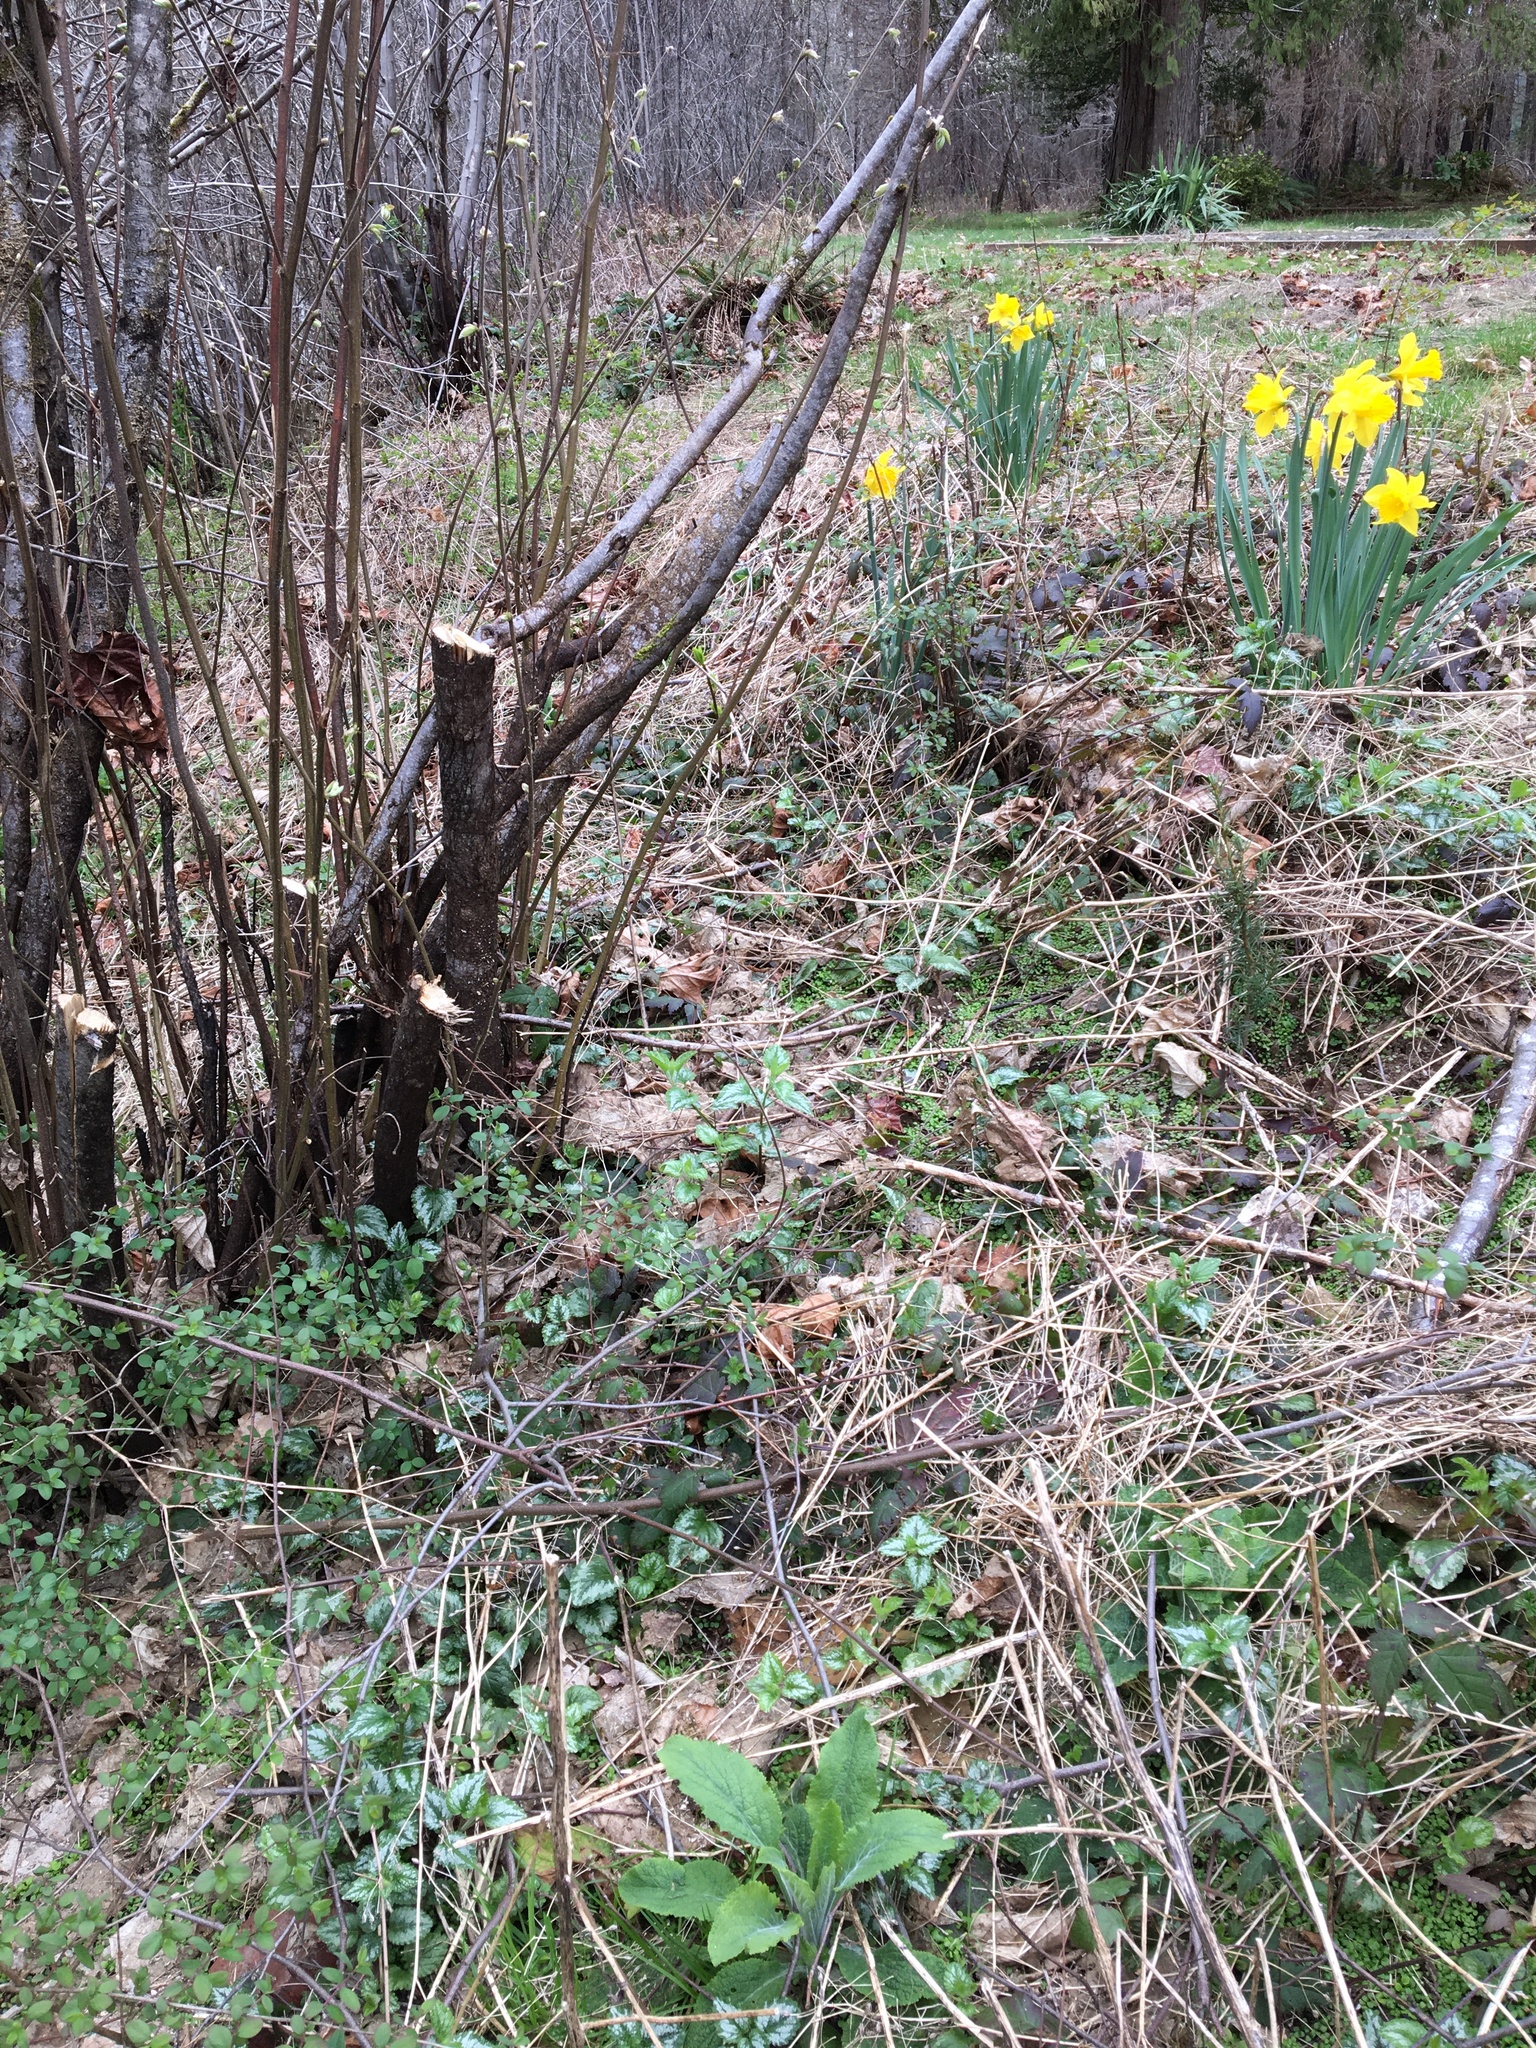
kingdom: Plantae
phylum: Tracheophyta
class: Magnoliopsida
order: Lamiales
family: Lamiaceae
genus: Lamium
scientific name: Lamium galeobdolon
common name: Yellow archangel
